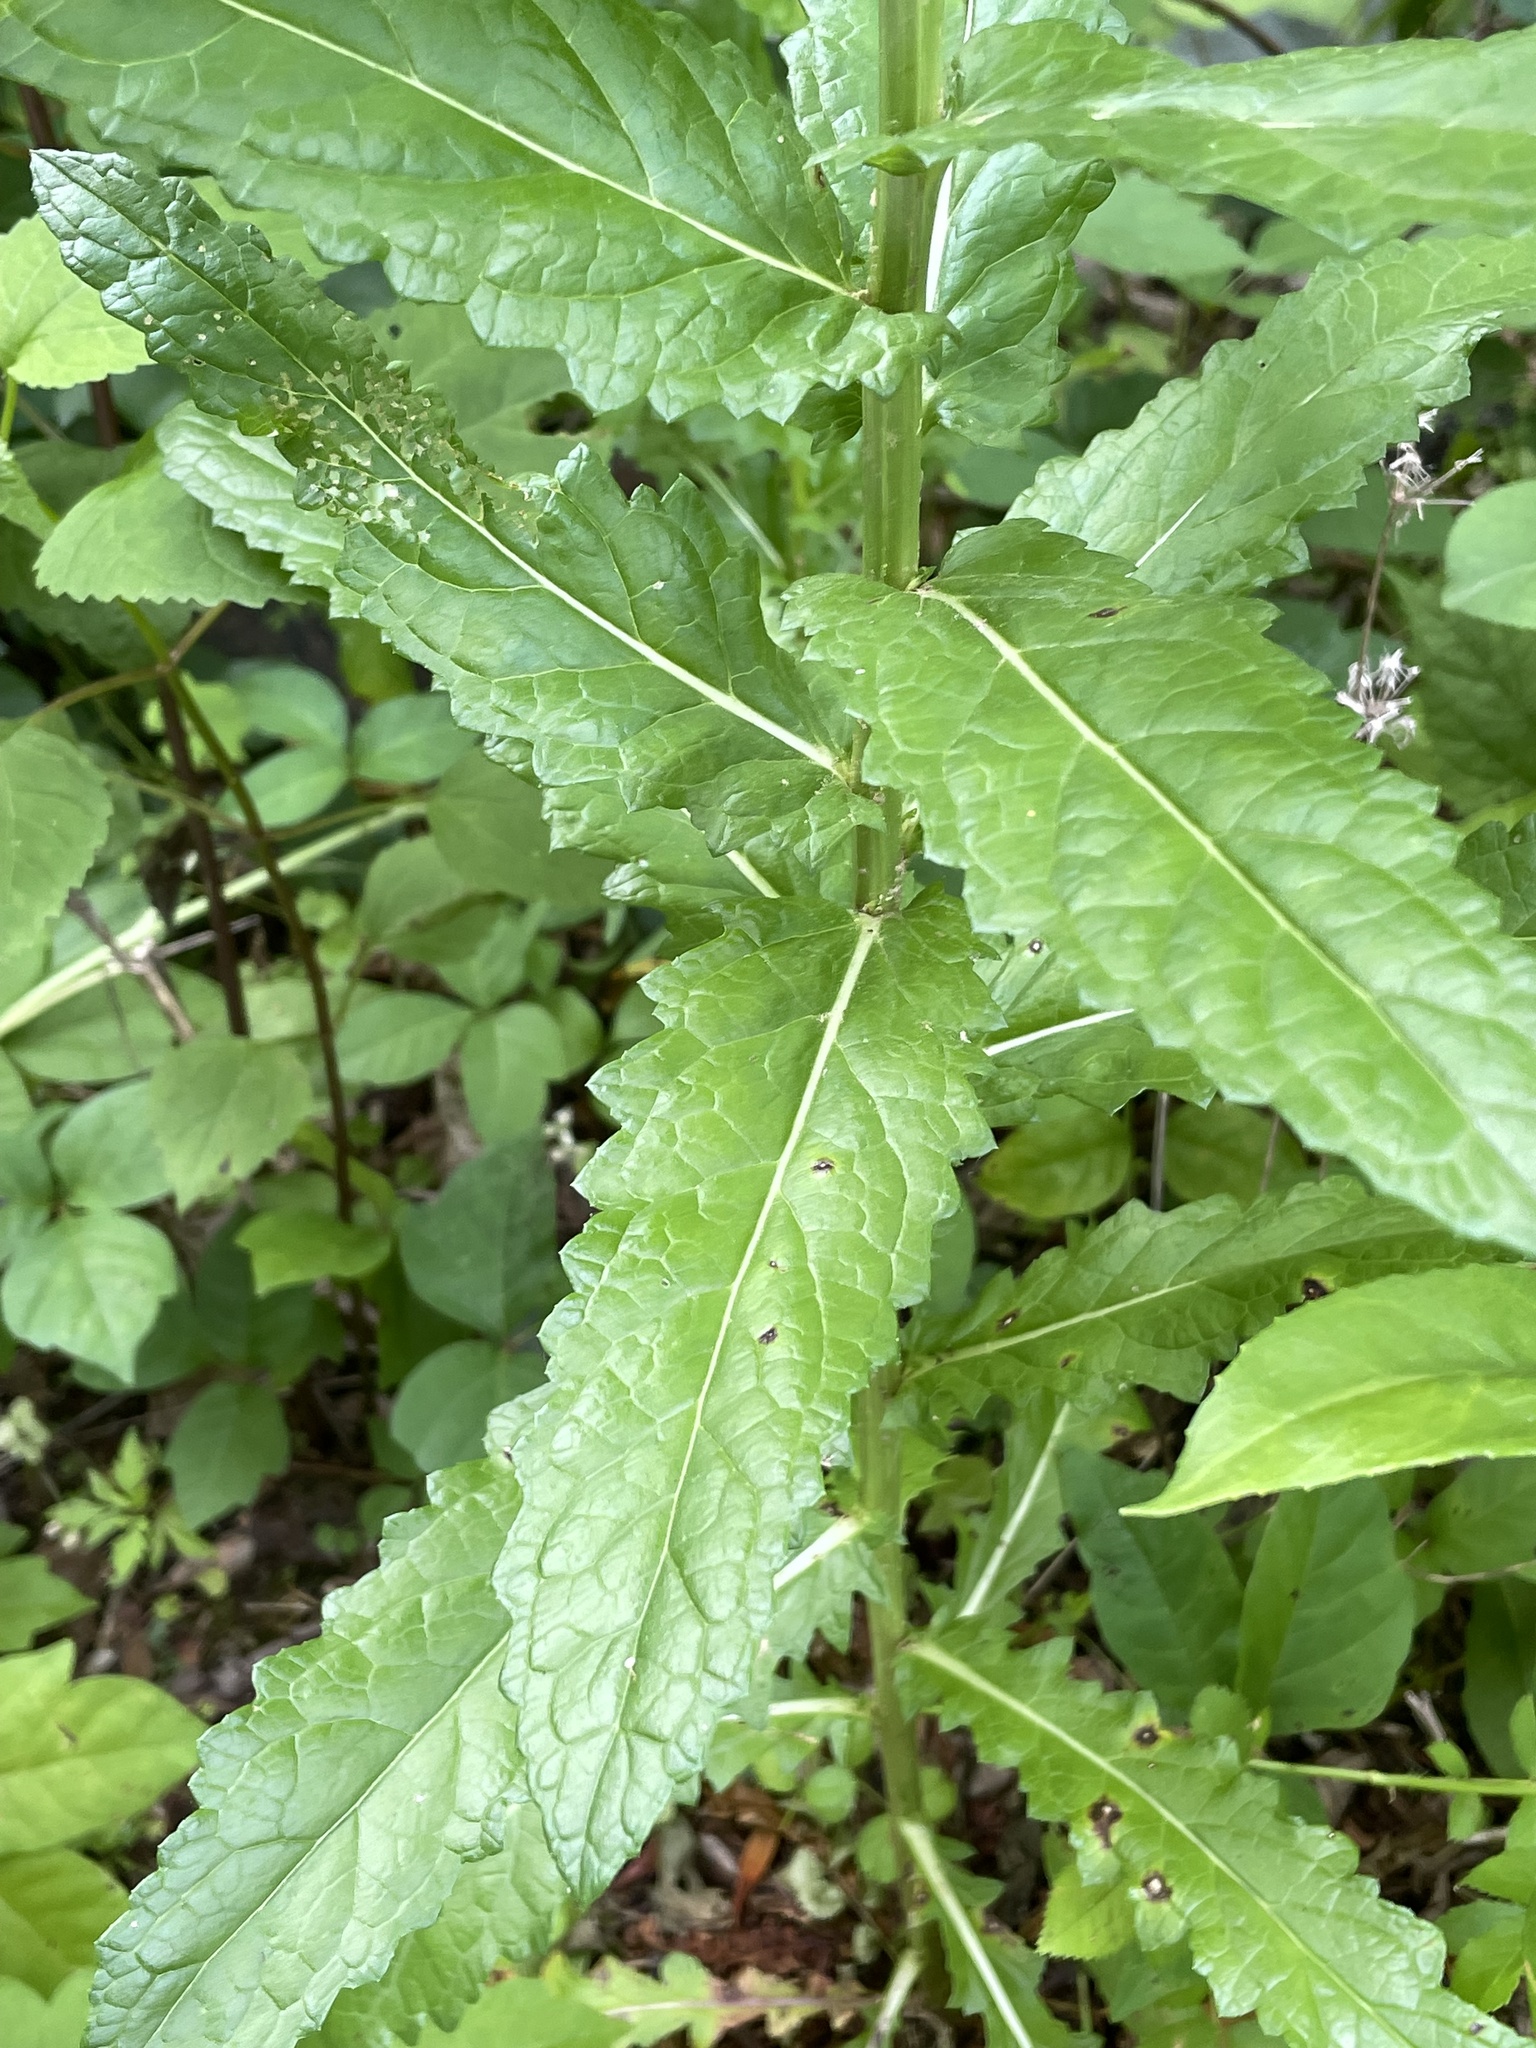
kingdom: Plantae
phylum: Tracheophyta
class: Magnoliopsida
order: Lamiales
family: Scrophulariaceae
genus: Verbascum
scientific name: Verbascum blattaria
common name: Moth mullein
